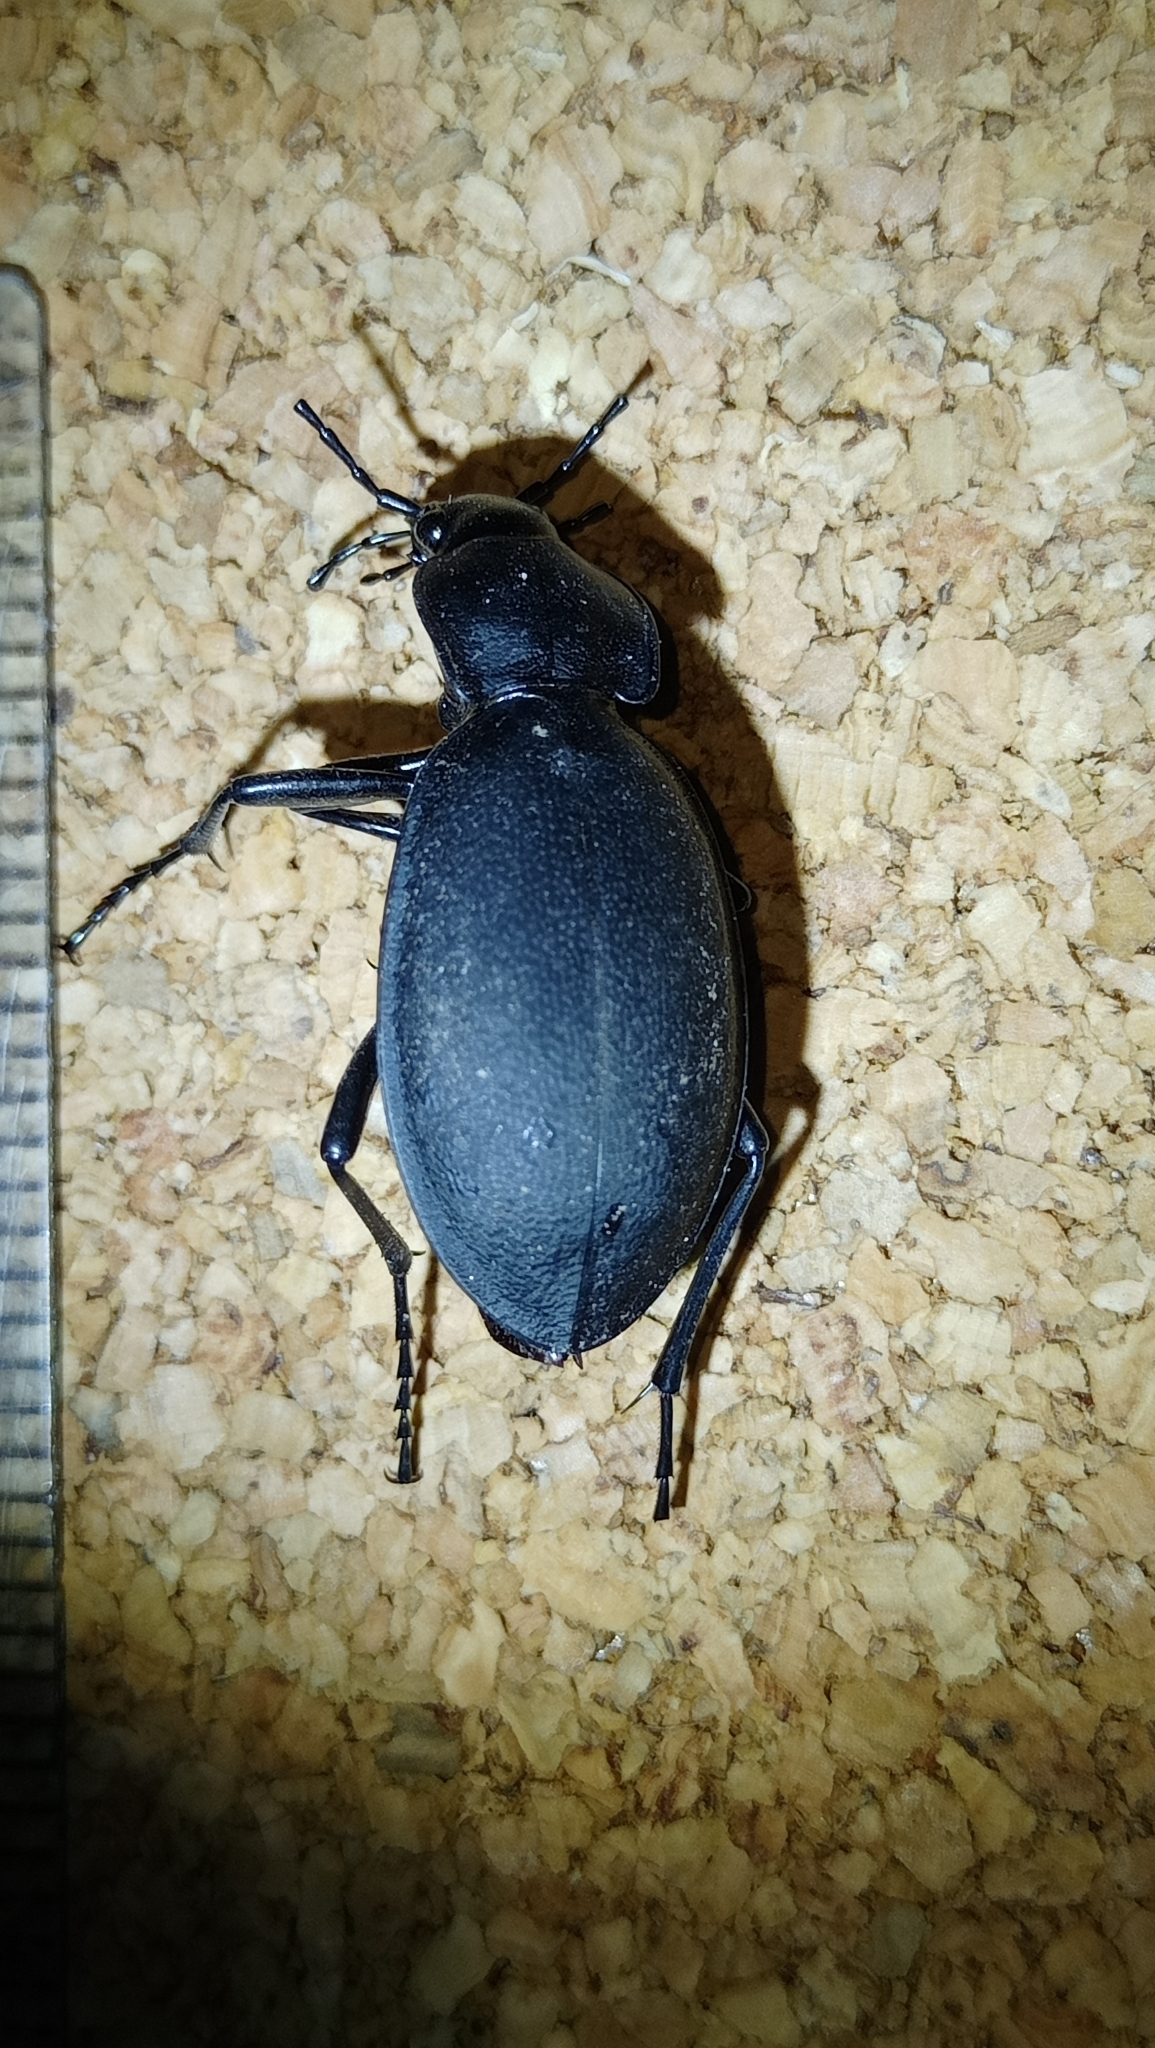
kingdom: Animalia
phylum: Arthropoda
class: Insecta
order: Coleoptera
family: Carabidae
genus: Carabus
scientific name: Carabus coriaceus
